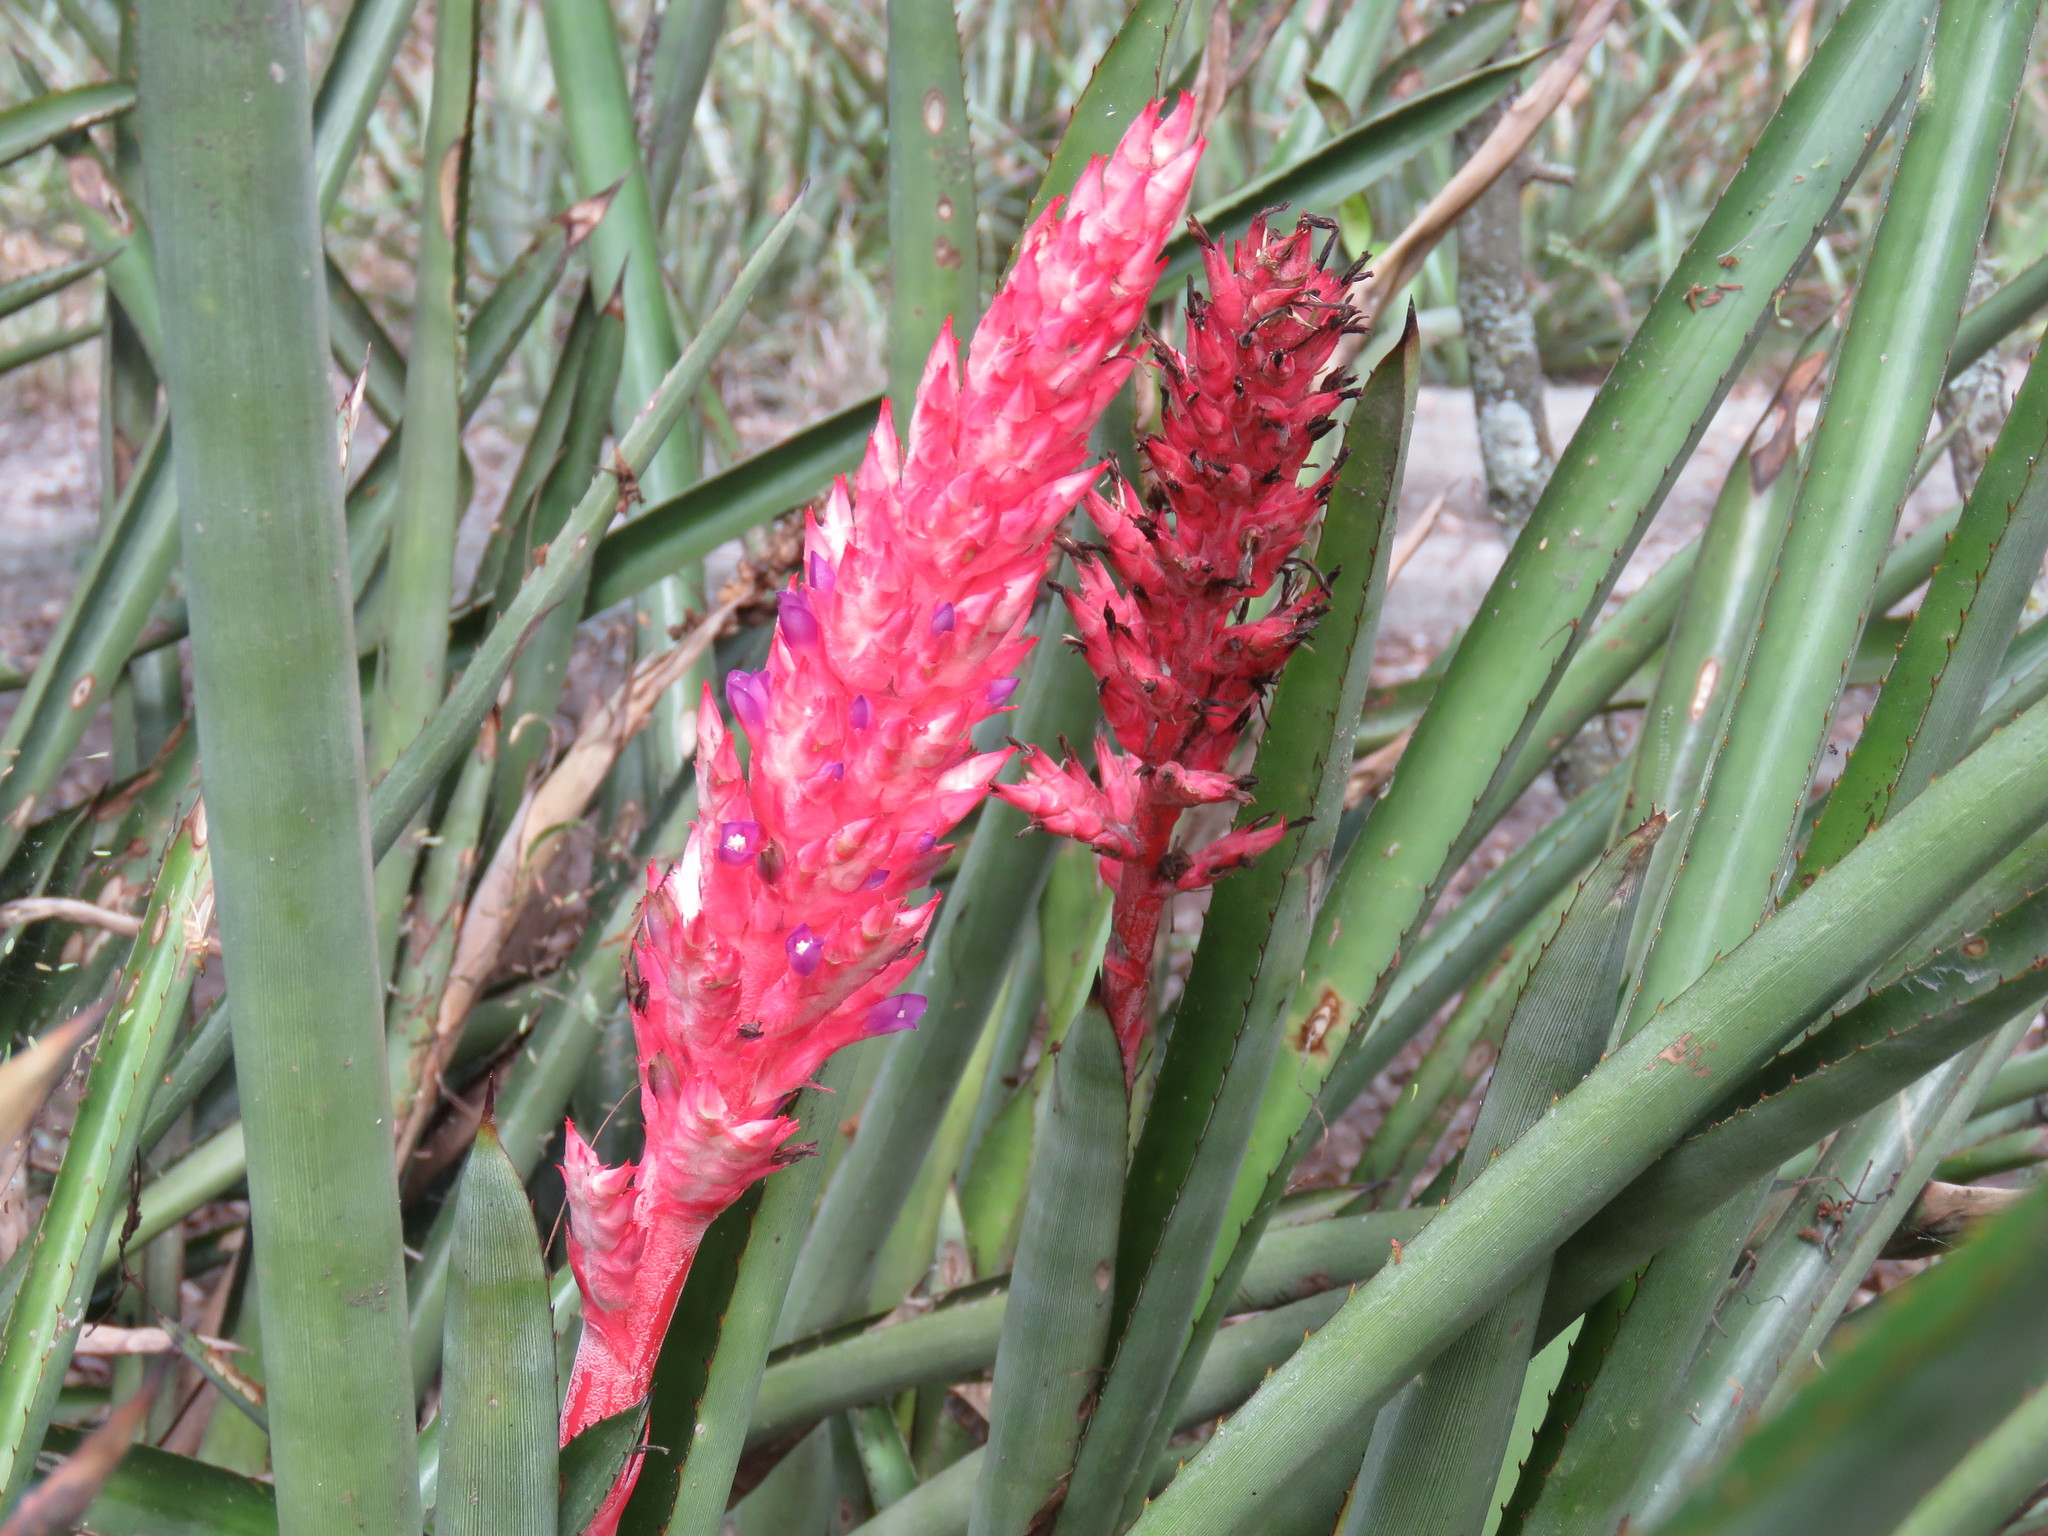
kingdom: Plantae
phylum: Tracheophyta
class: Liliopsida
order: Poales
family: Bromeliaceae
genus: Aechmea
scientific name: Aechmea distichantha
